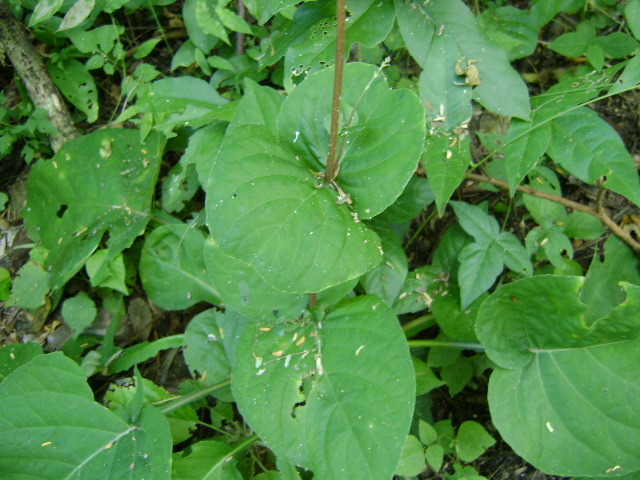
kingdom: Plantae
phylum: Tracheophyta
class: Magnoliopsida
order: Lamiales
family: Acanthaceae
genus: Pseuderanthemum
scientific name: Pseuderanthemum alatum
